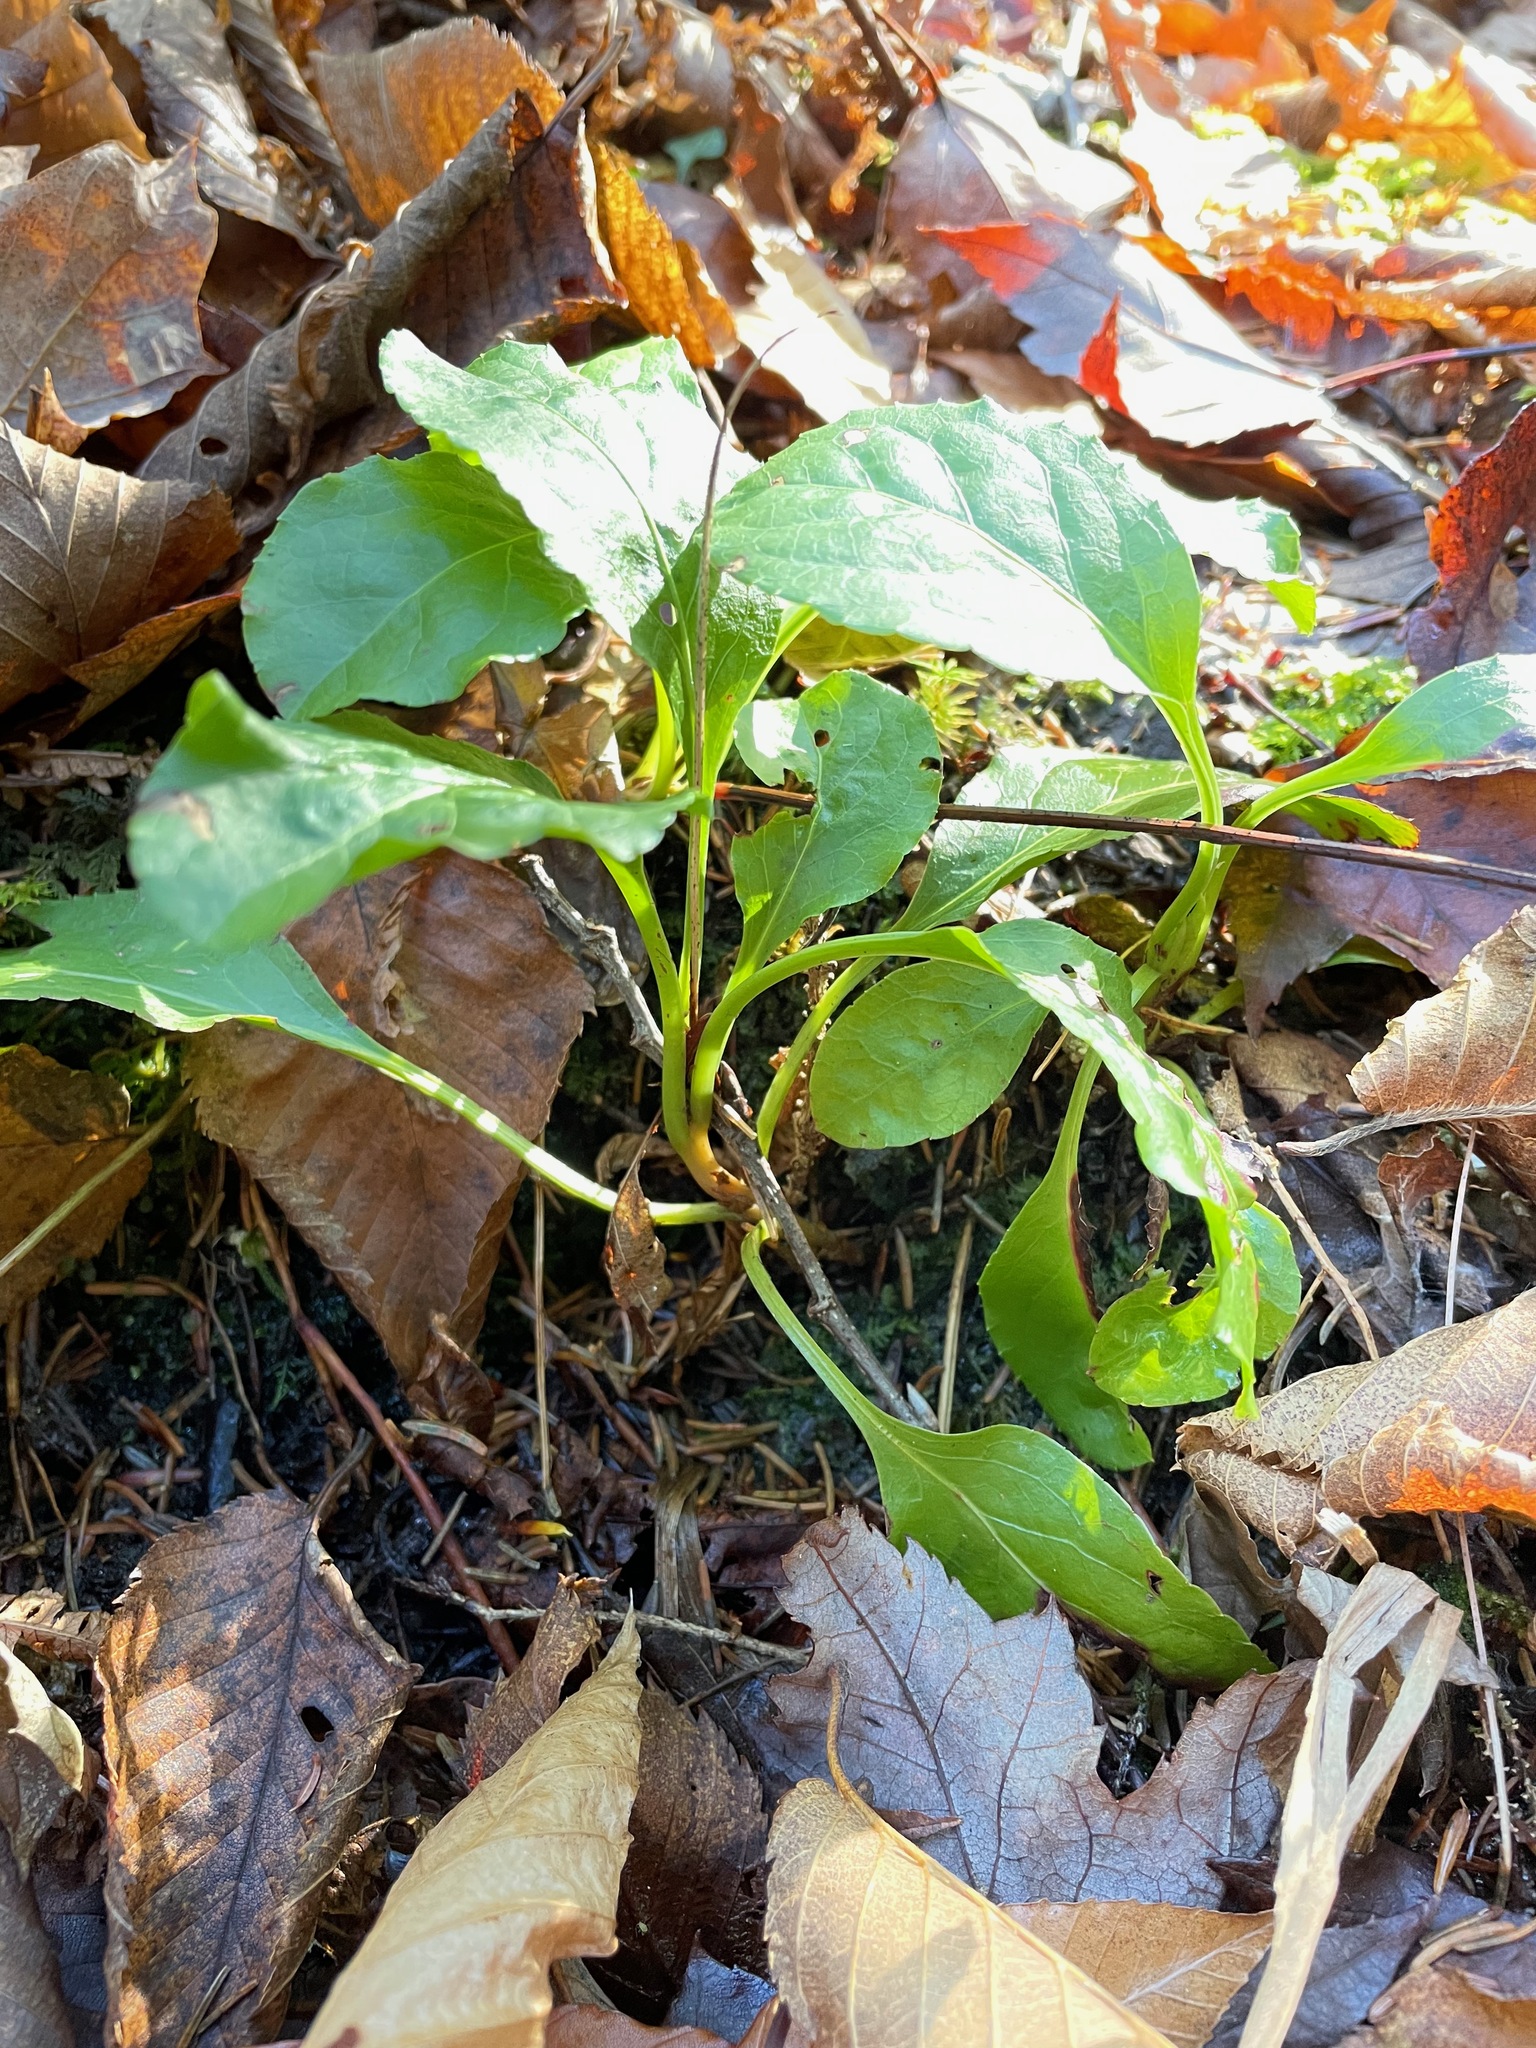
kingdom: Plantae
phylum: Tracheophyta
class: Magnoliopsida
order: Ericales
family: Ericaceae
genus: Pyrola
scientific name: Pyrola elliptica
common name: Shinleaf
